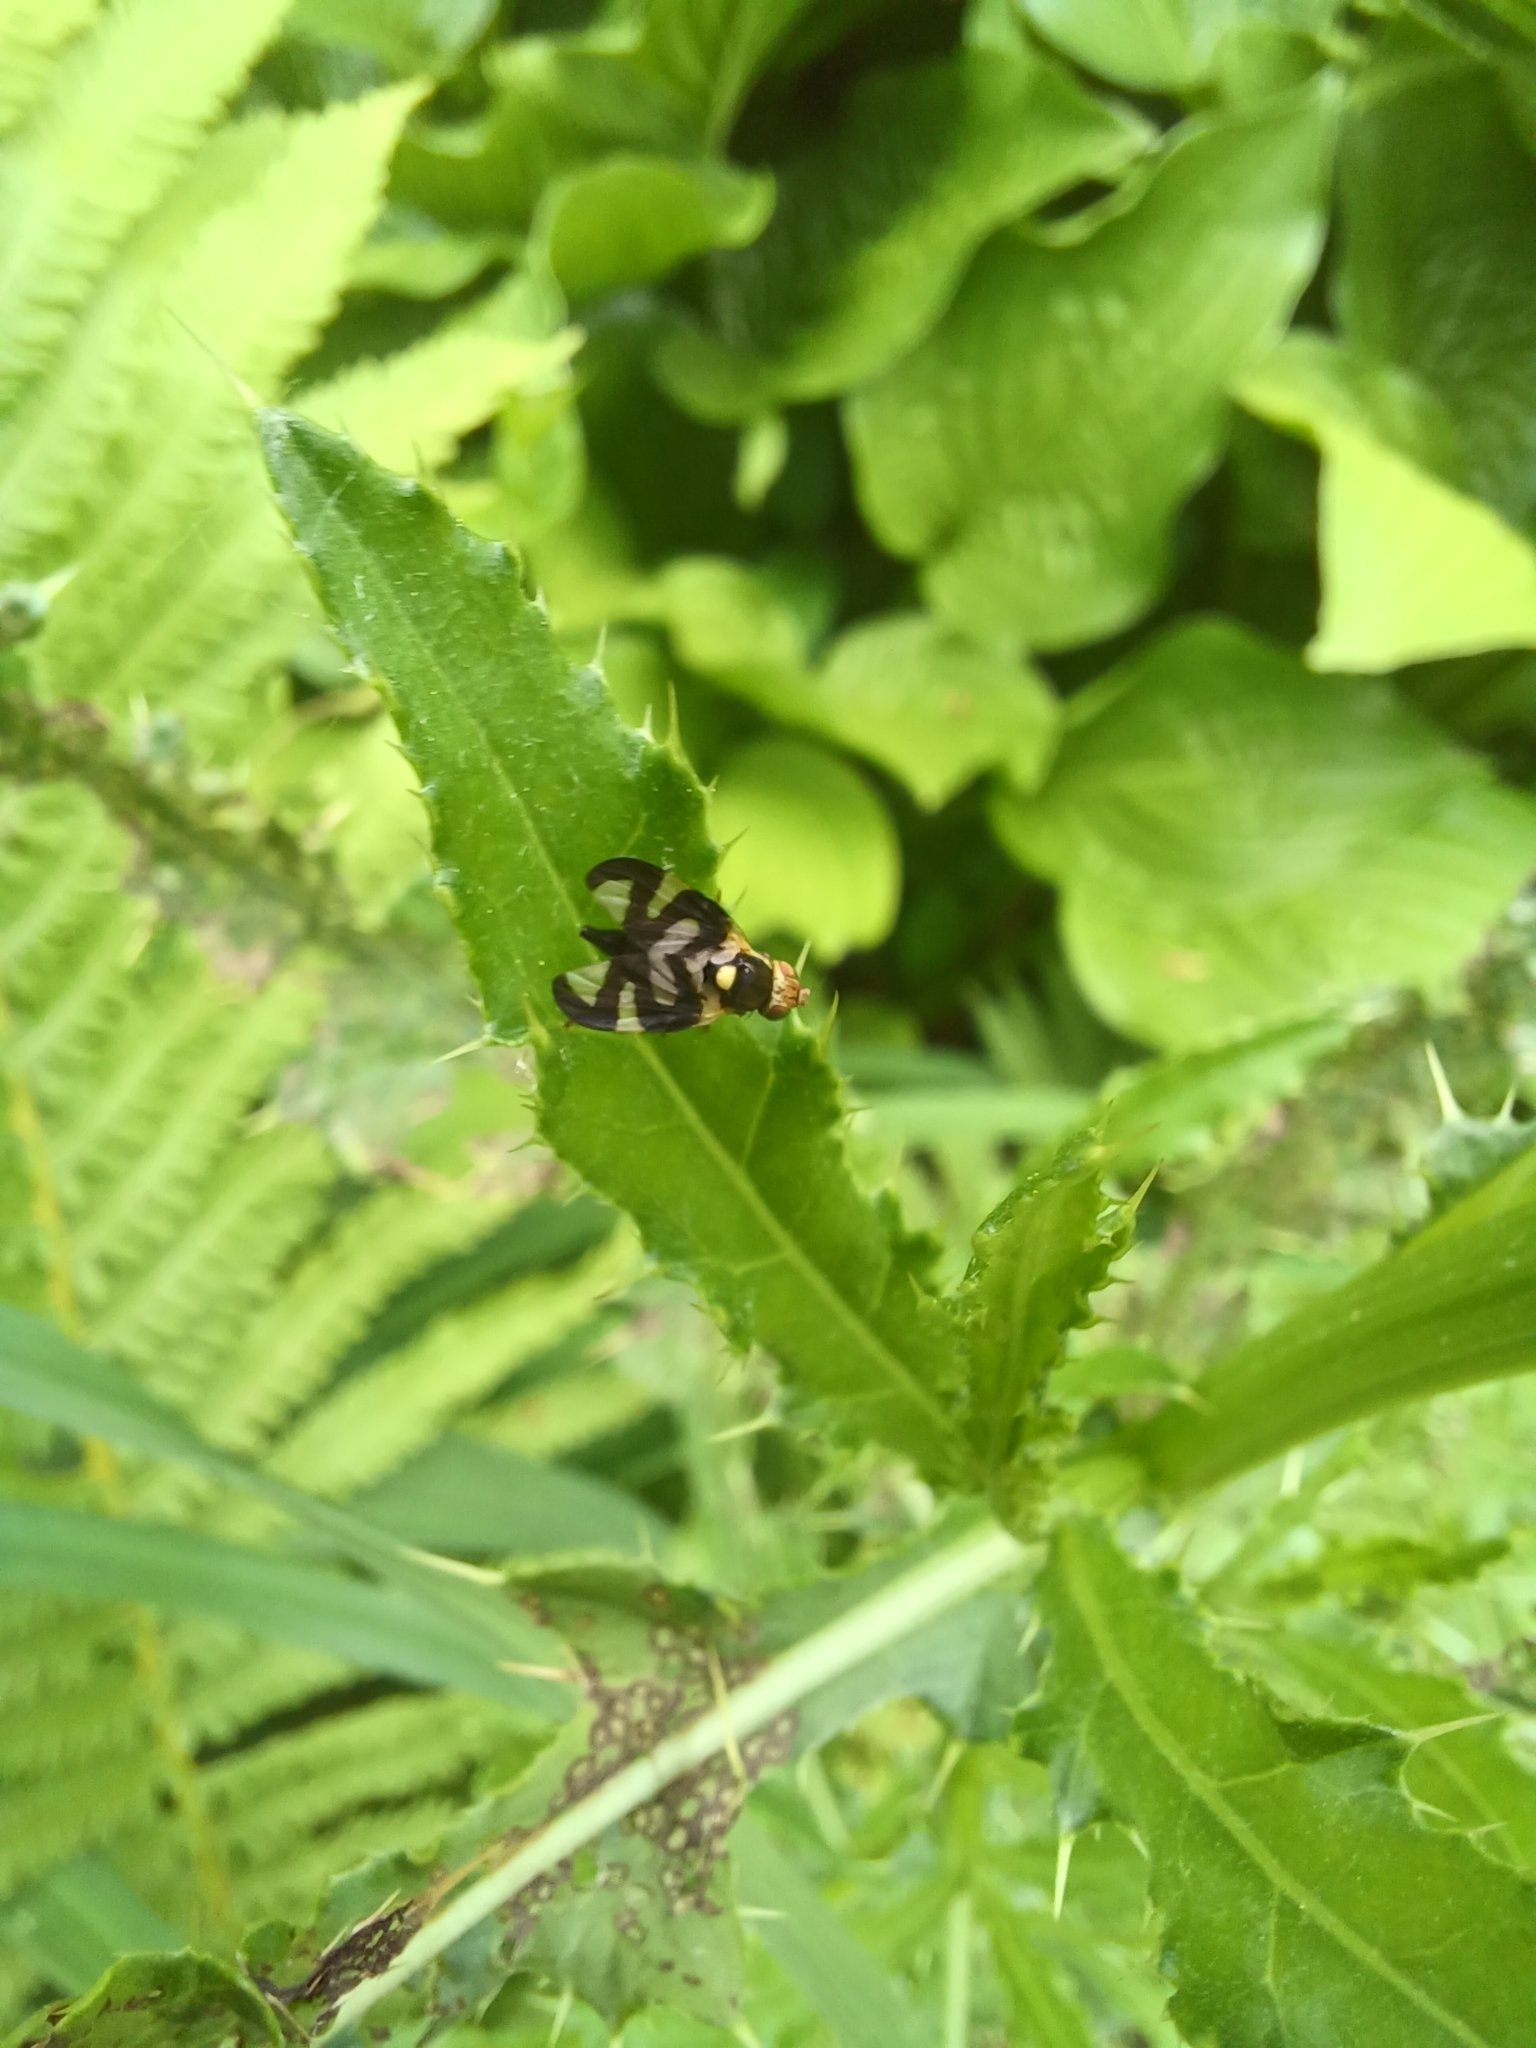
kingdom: Animalia
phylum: Arthropoda
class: Insecta
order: Diptera
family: Tephritidae
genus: Urophora
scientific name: Urophora cardui
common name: Fruit fly
